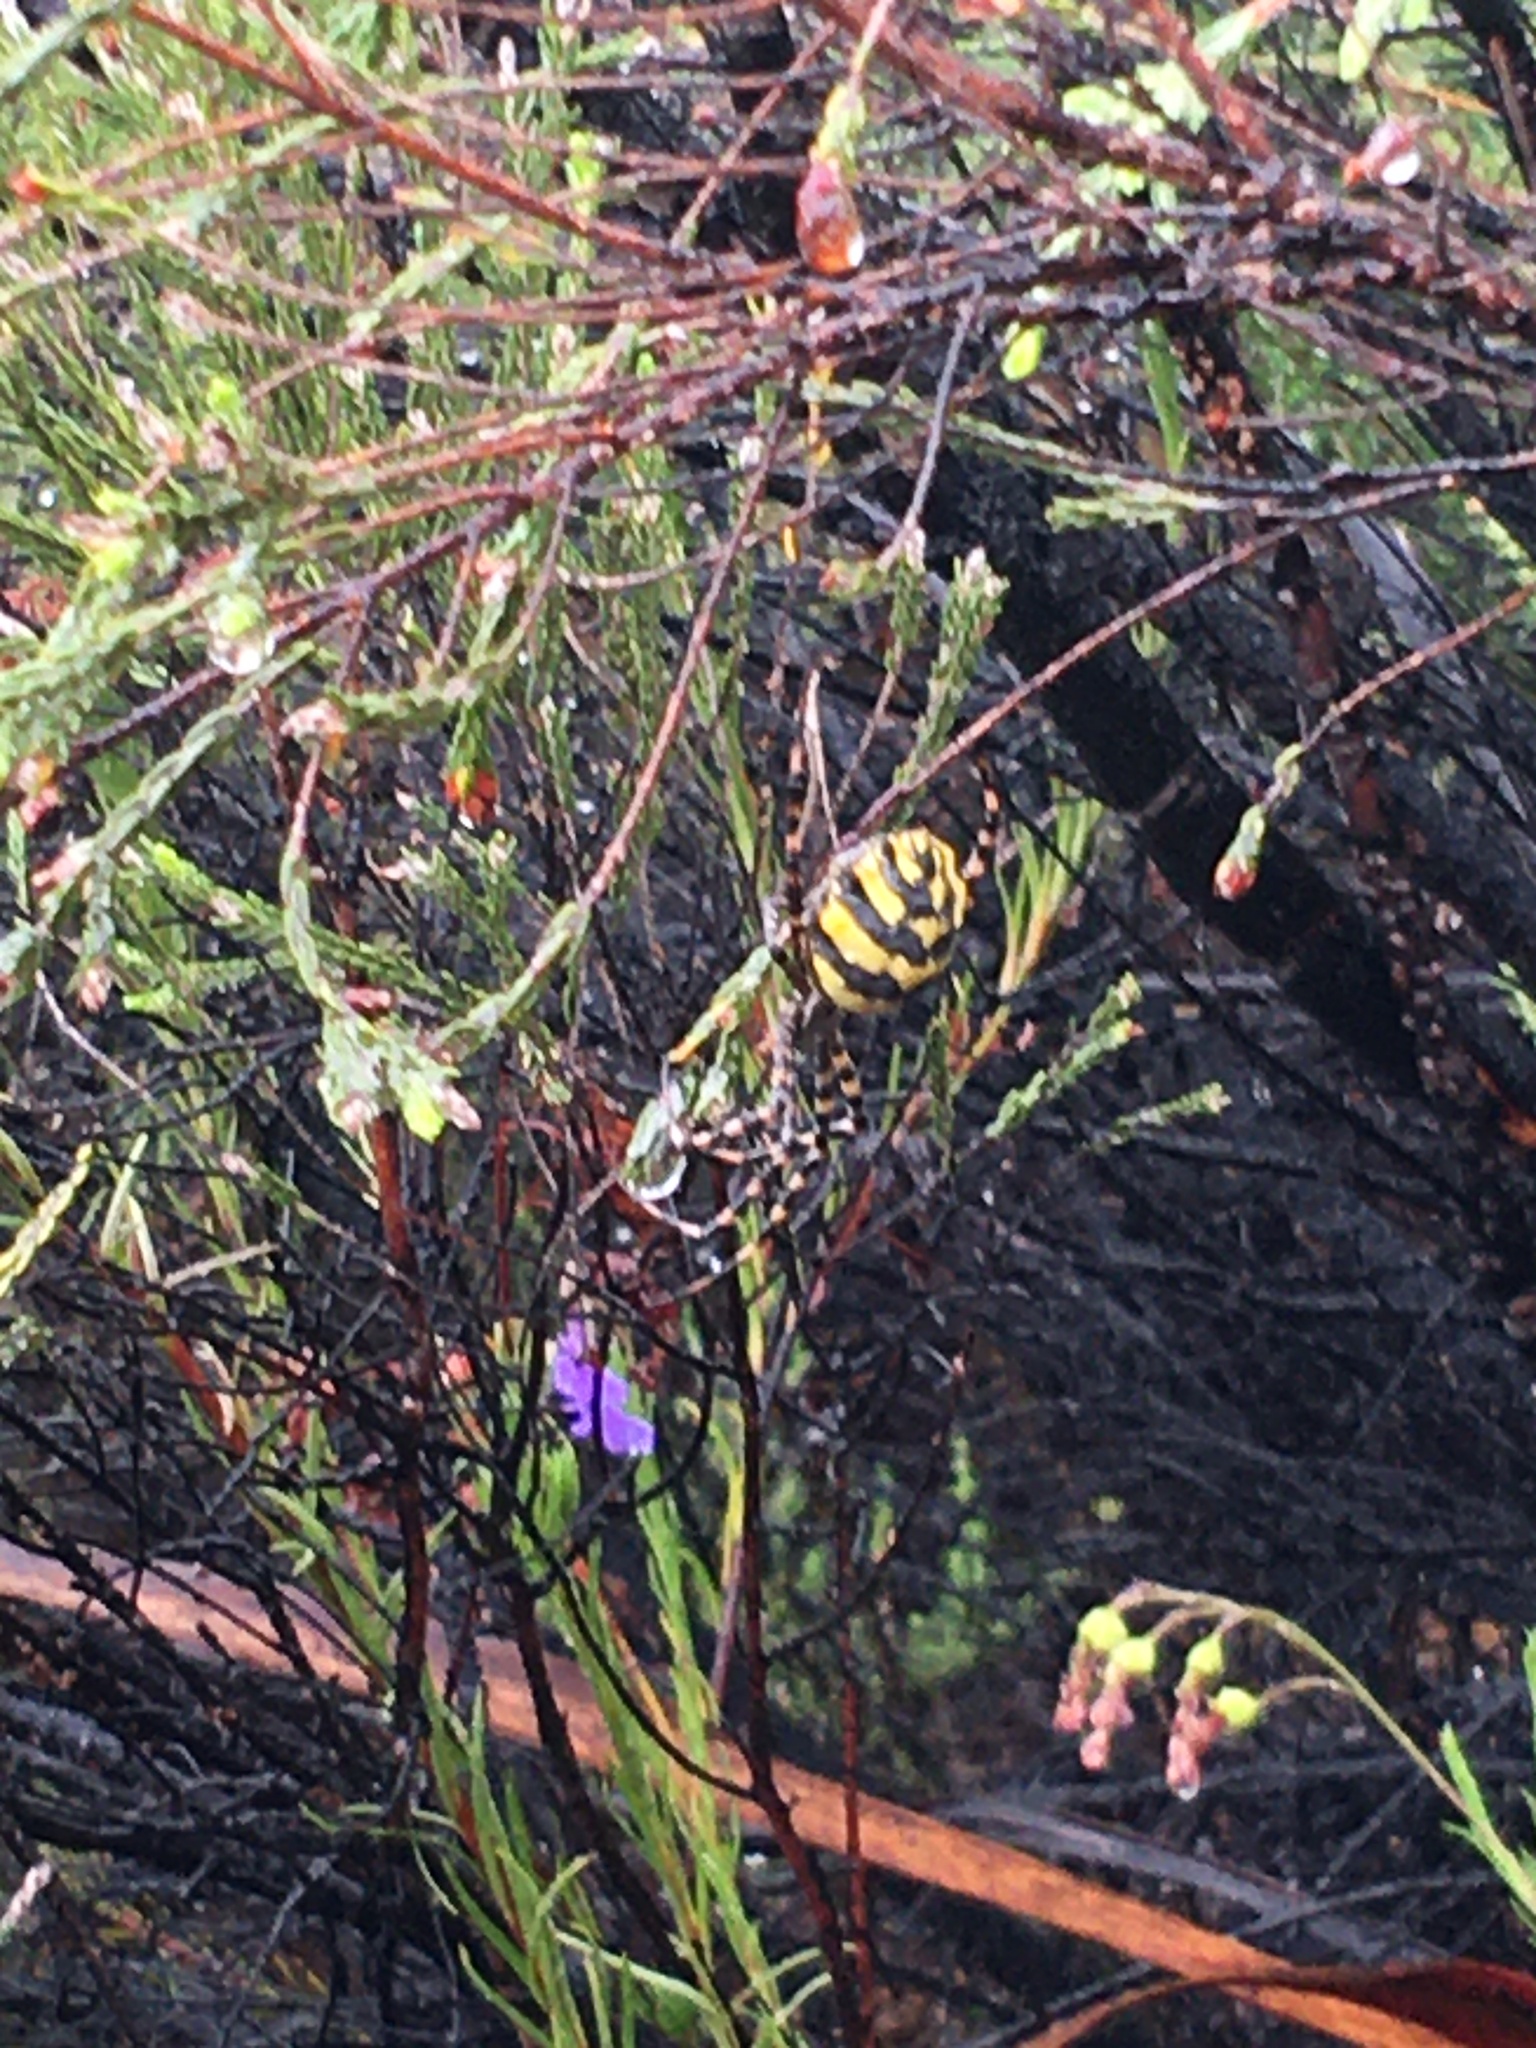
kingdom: Animalia
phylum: Arthropoda
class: Arachnida
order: Araneae
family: Araneidae
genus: Argiope
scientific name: Argiope australis
